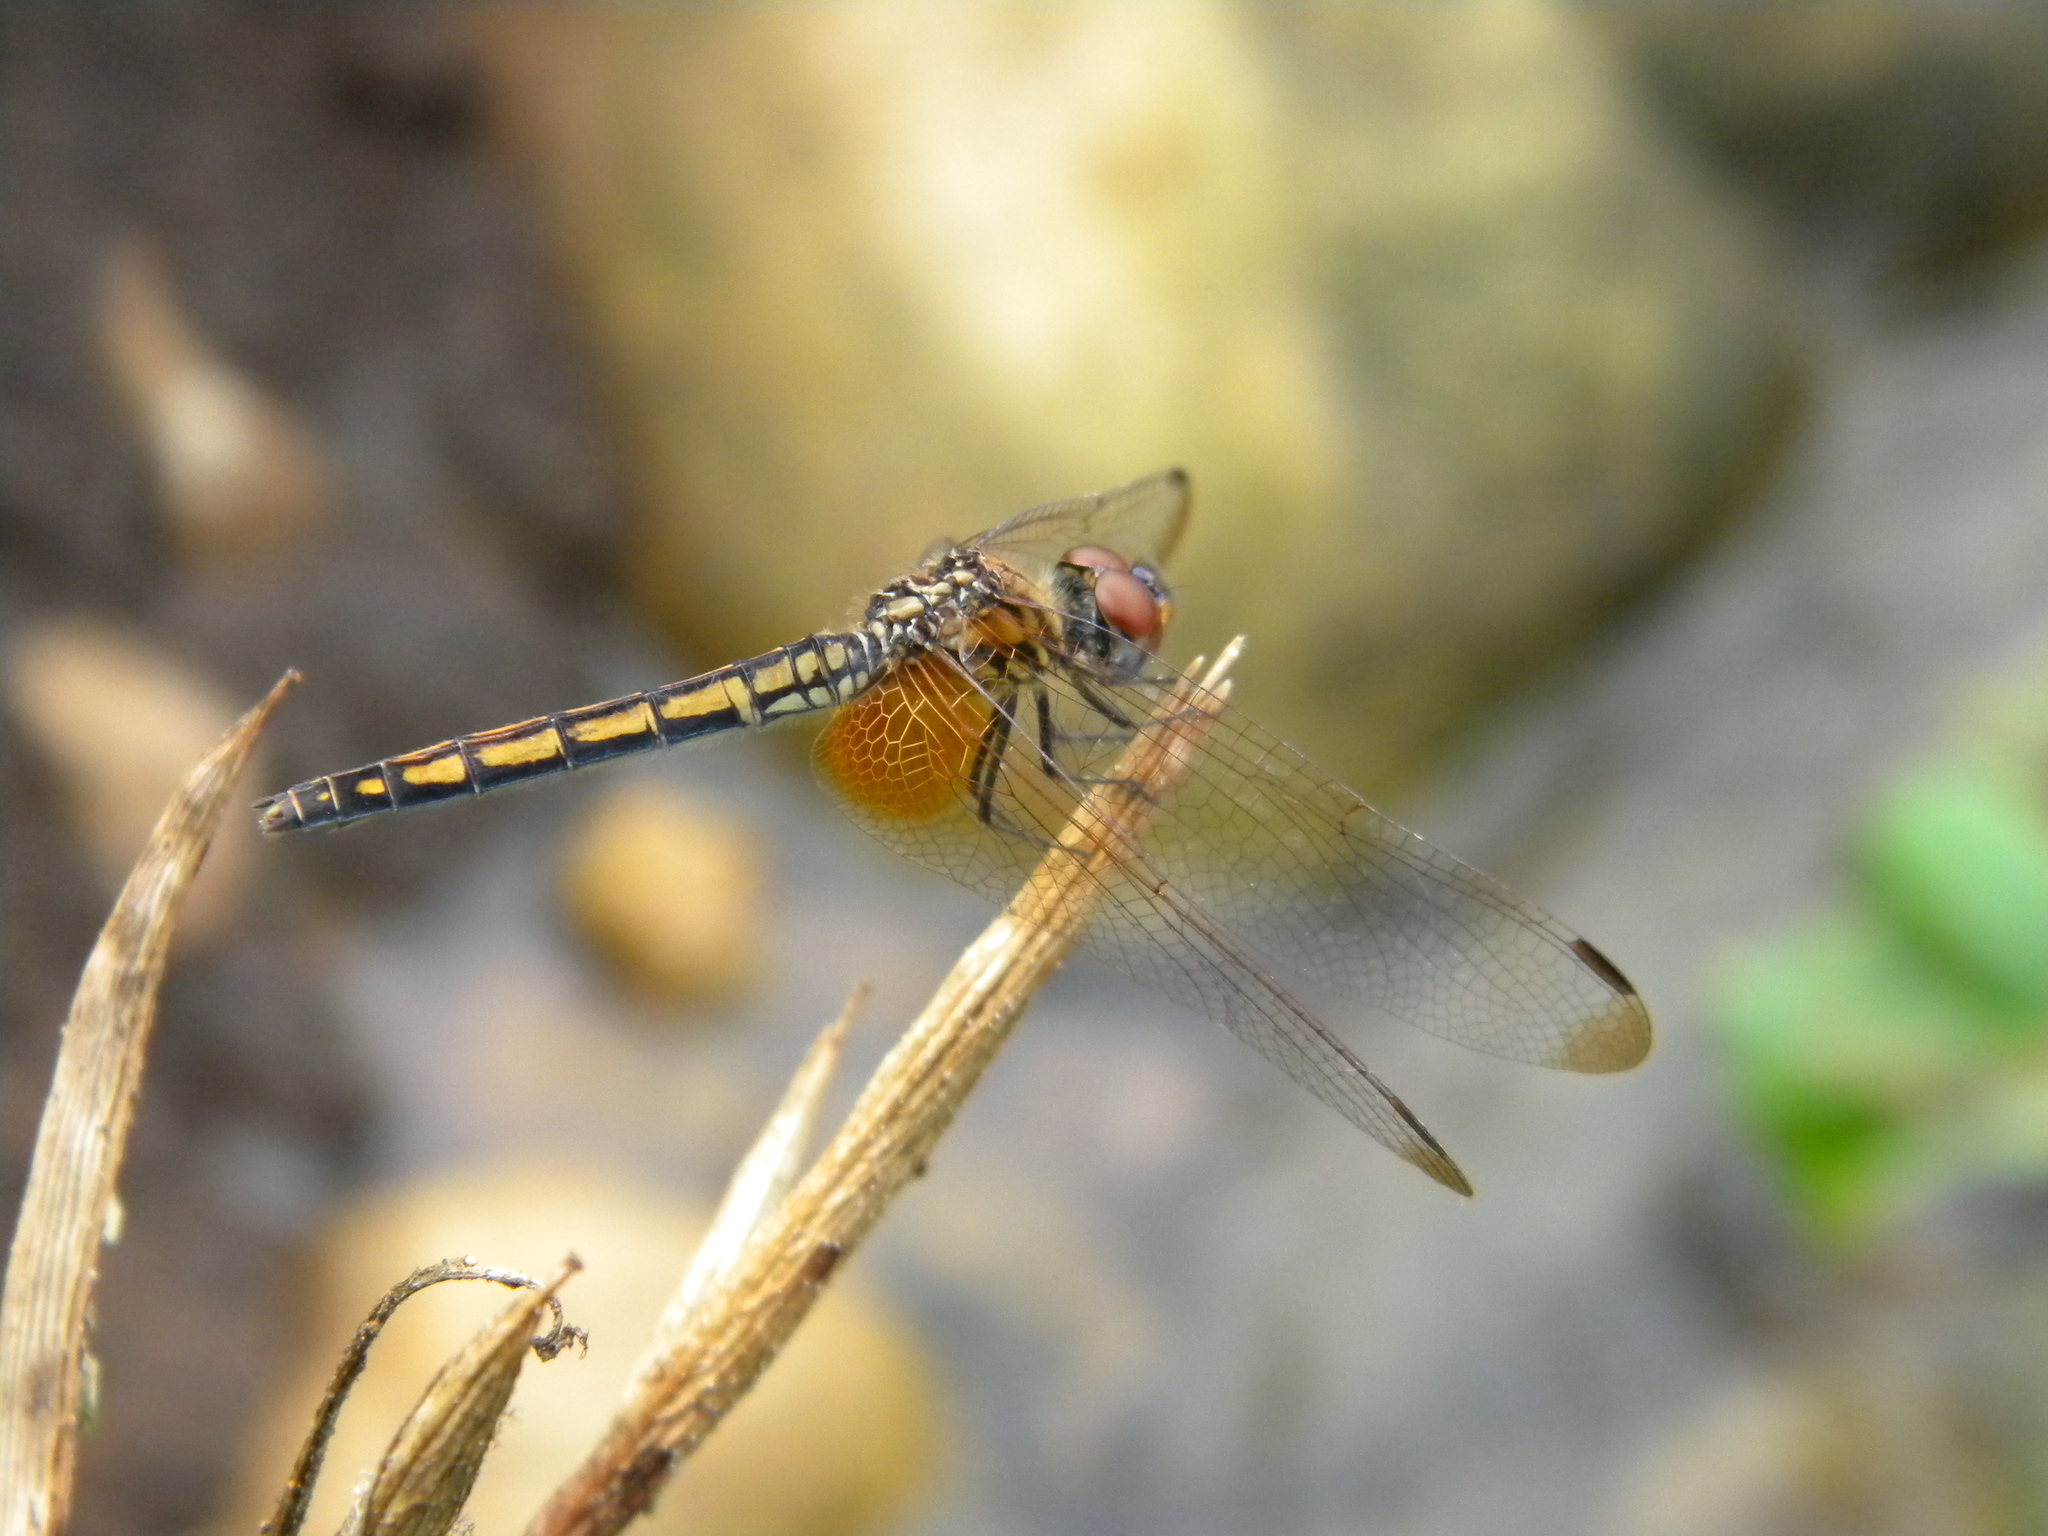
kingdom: Animalia
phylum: Arthropoda
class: Insecta
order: Odonata
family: Libellulidae
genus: Trithemis
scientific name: Trithemis aurora
